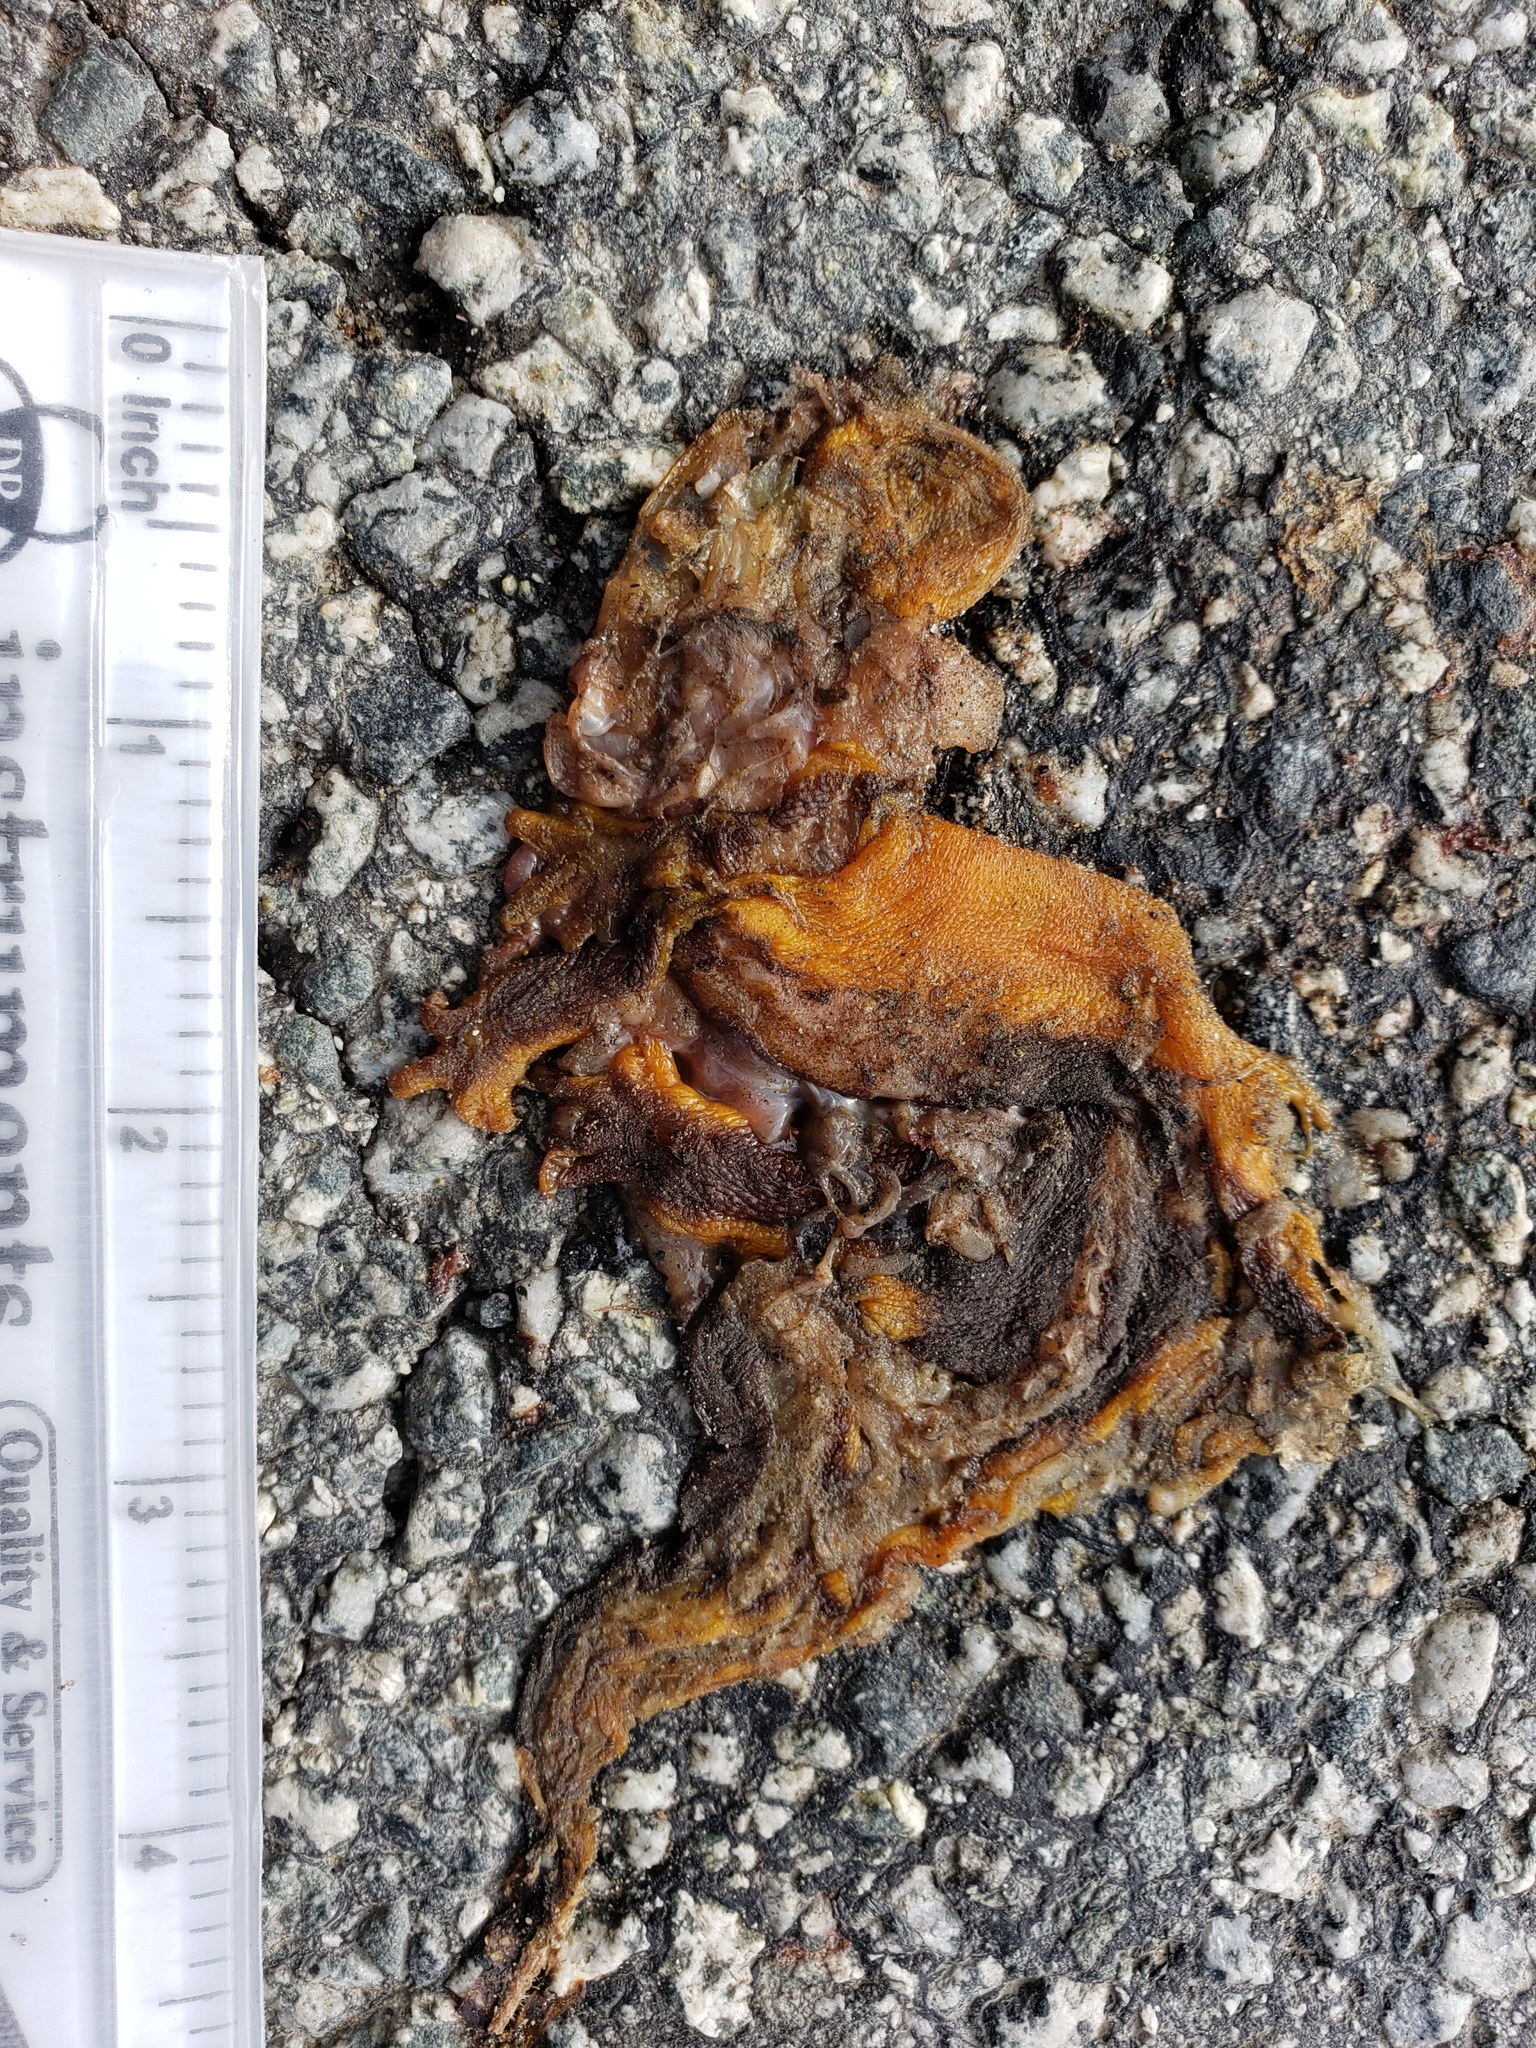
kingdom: Animalia
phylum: Chordata
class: Amphibia
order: Caudata
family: Salamandridae
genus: Taricha
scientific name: Taricha
